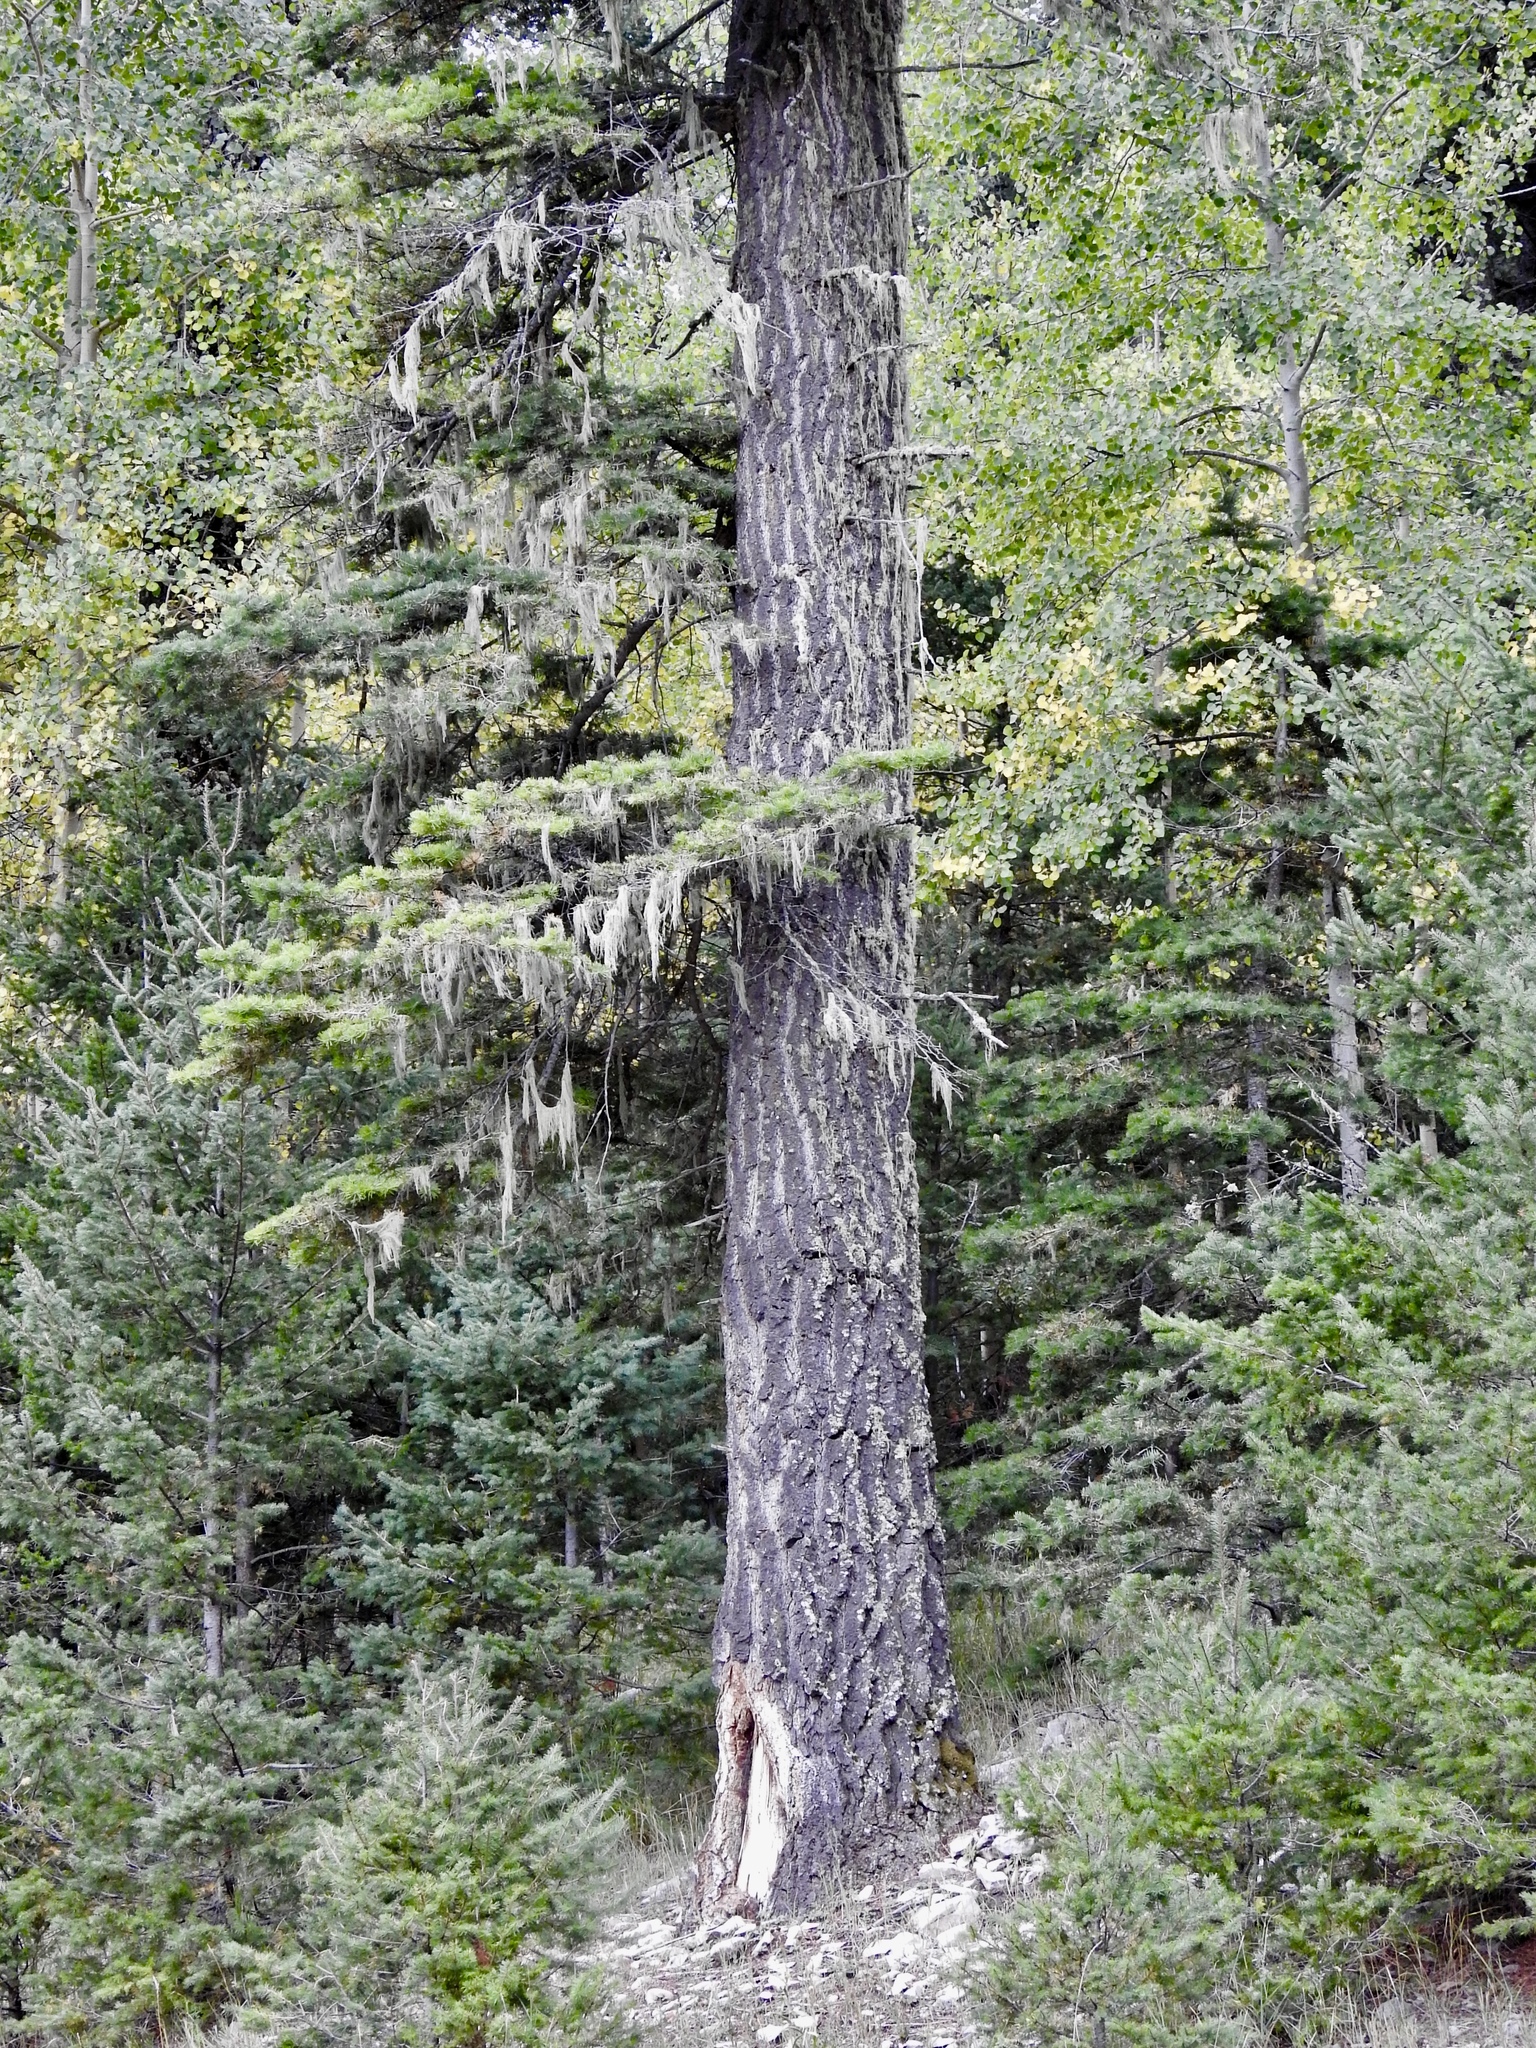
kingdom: Plantae
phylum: Tracheophyta
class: Pinopsida
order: Pinales
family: Pinaceae
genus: Abies
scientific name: Abies concolor
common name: Colorado fir
